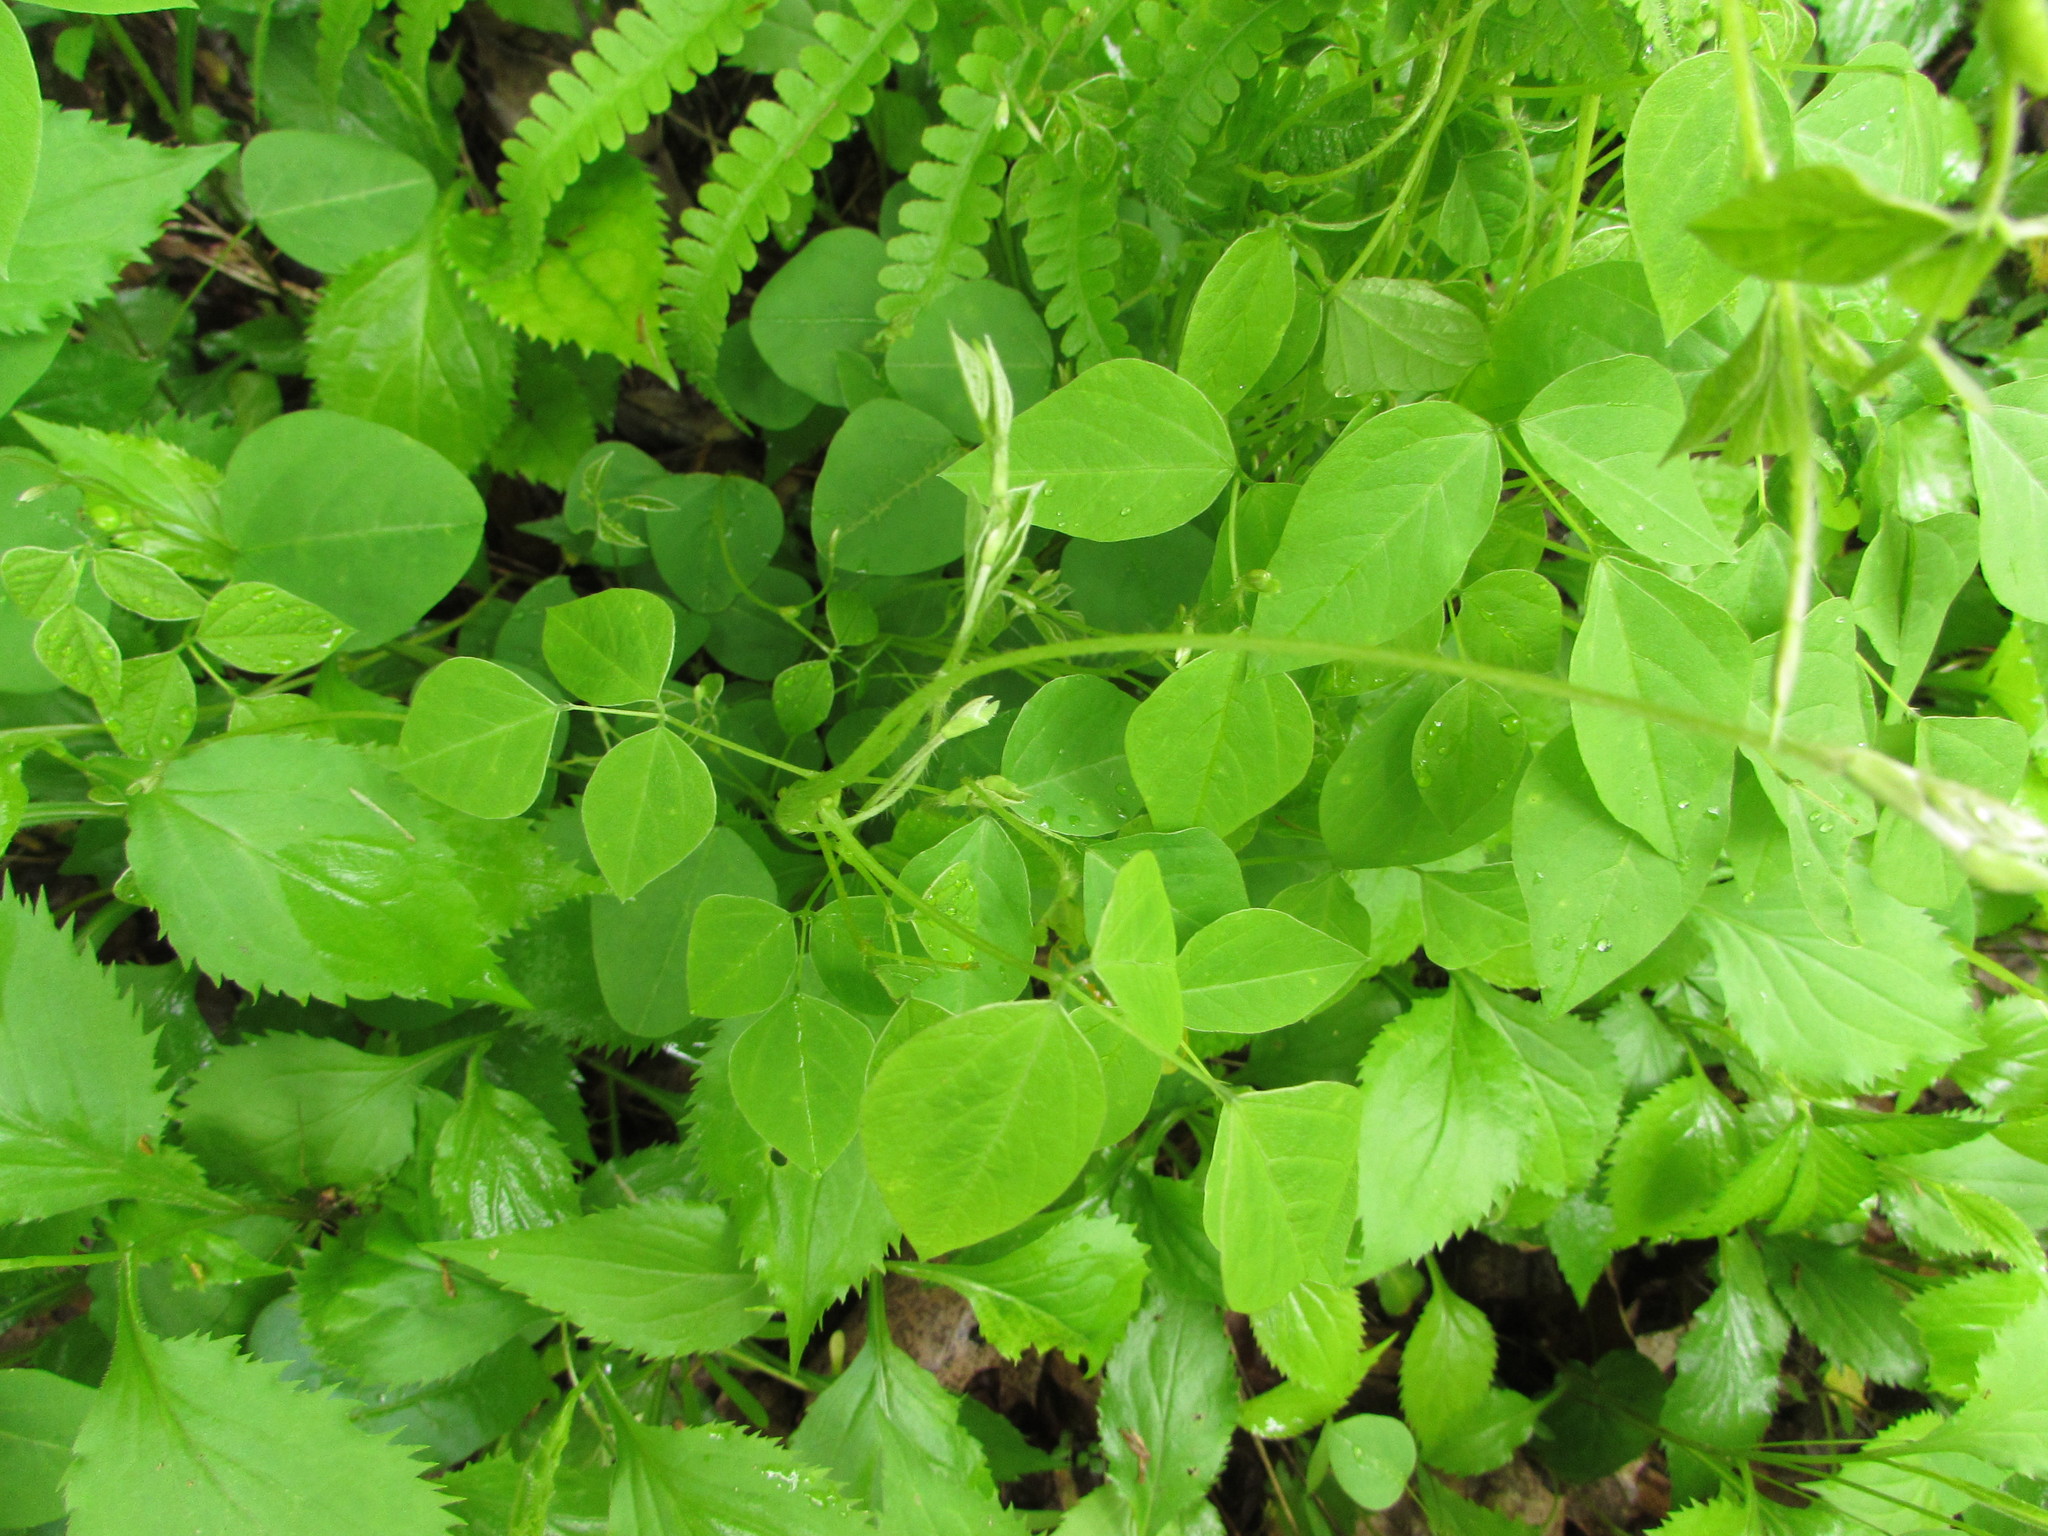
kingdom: Plantae
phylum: Tracheophyta
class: Magnoliopsida
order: Fabales
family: Fabaceae
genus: Amphicarpaea
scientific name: Amphicarpaea bracteata
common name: American hog peanut
